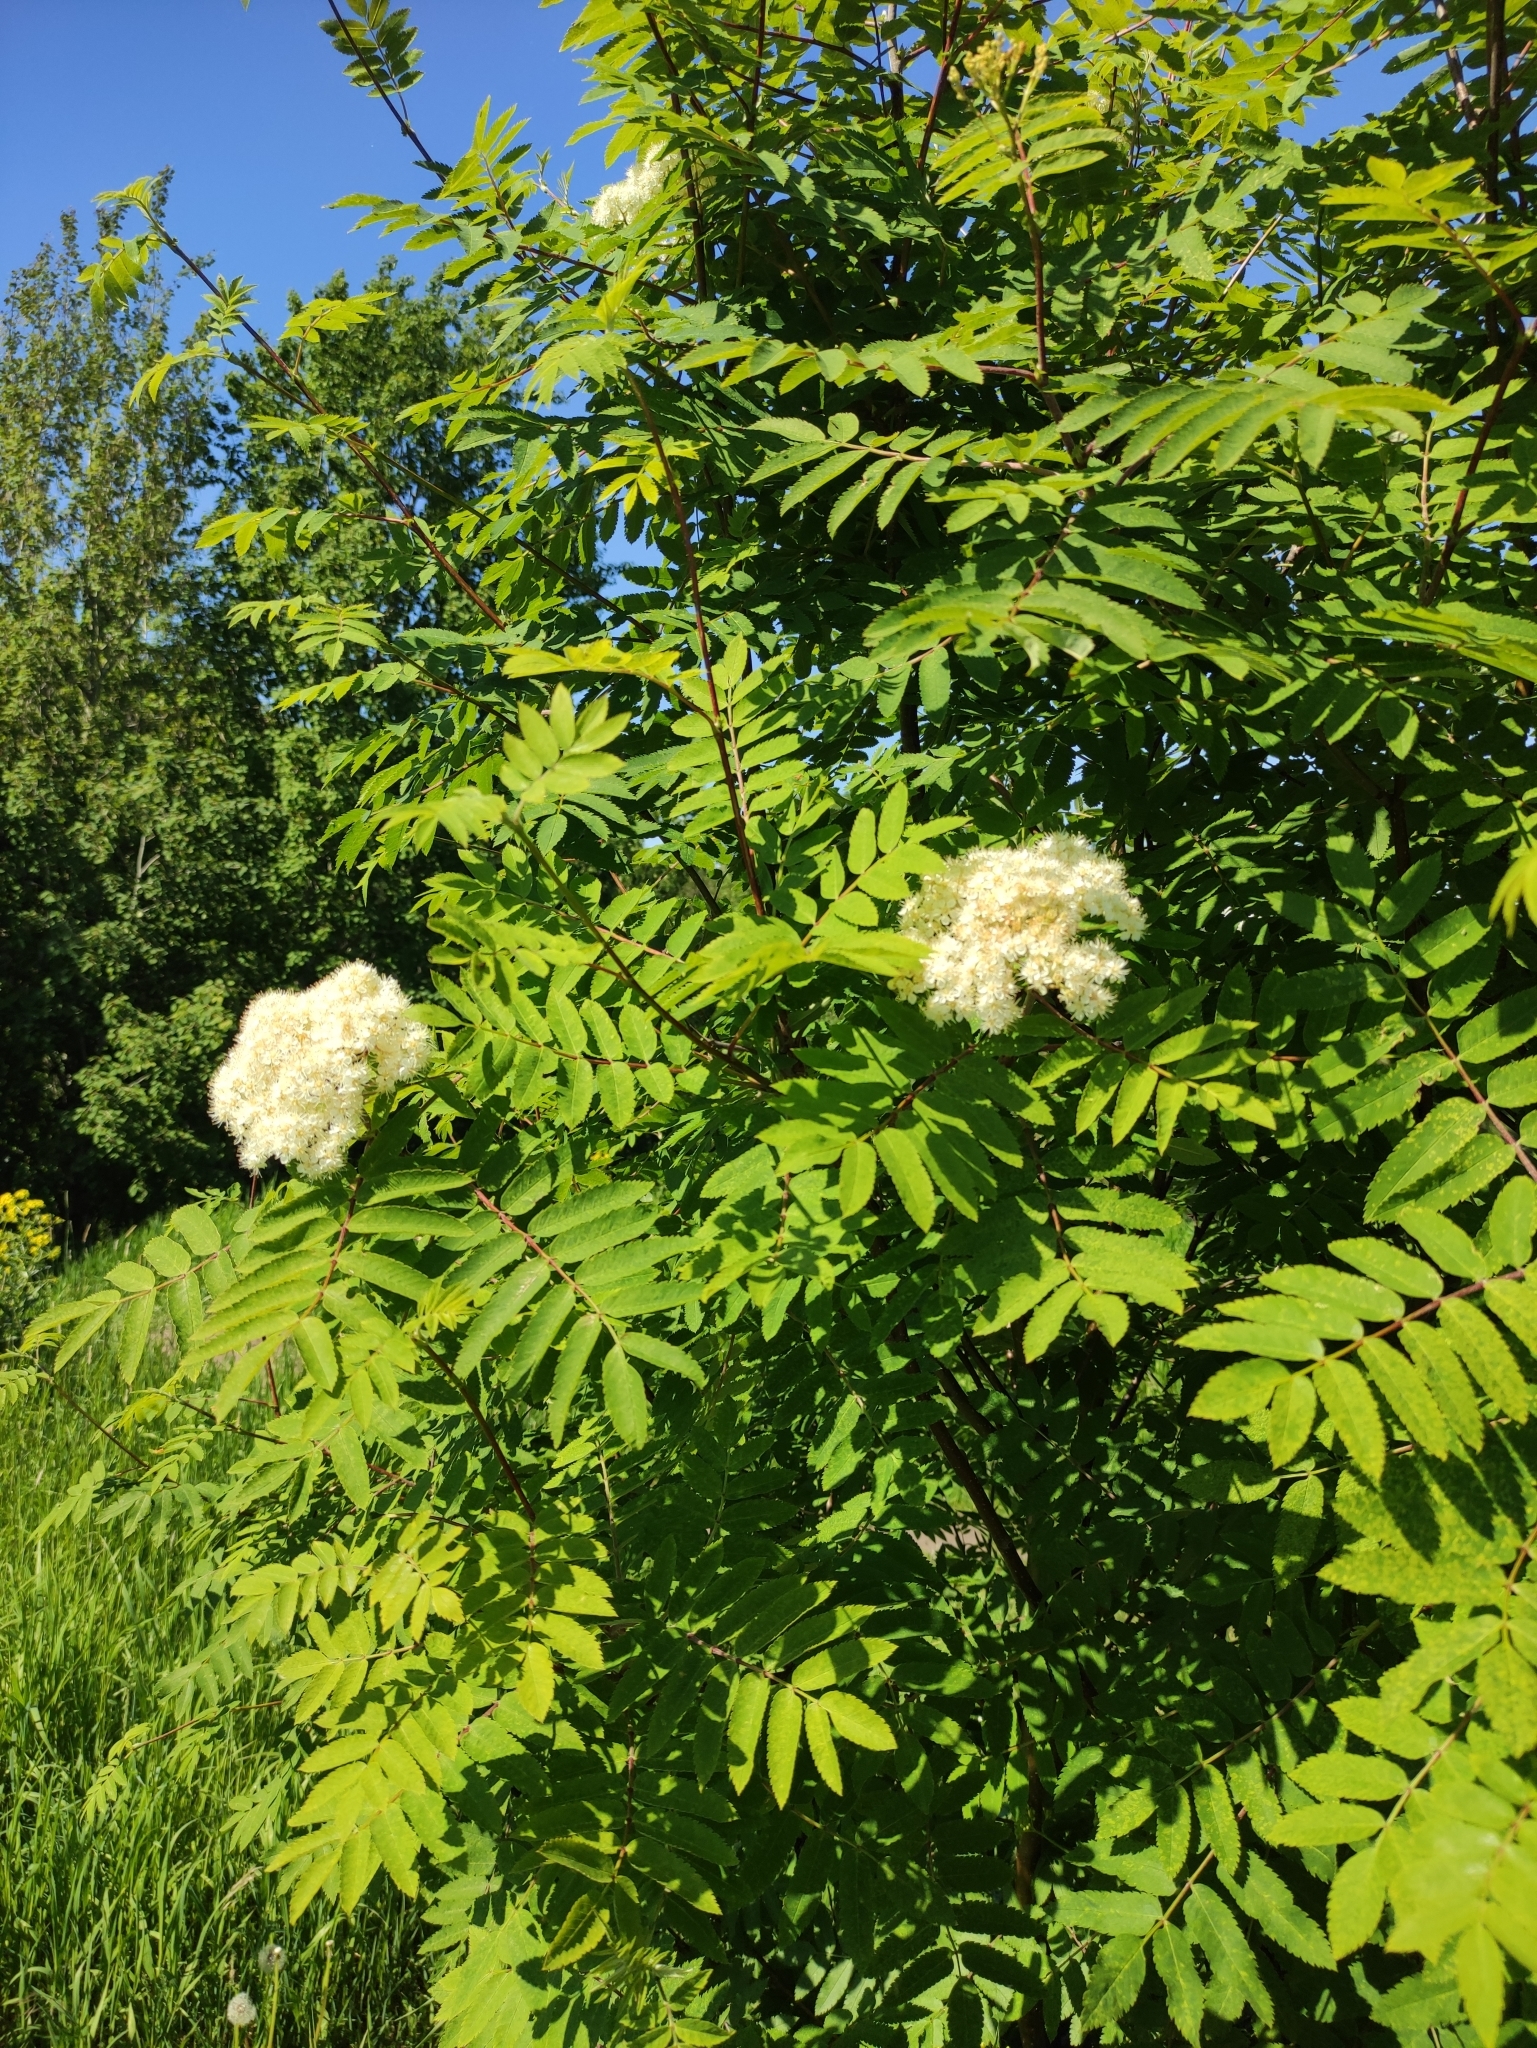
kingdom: Plantae
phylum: Tracheophyta
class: Magnoliopsida
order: Rosales
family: Rosaceae
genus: Sorbus
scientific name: Sorbus aucuparia
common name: Rowan
